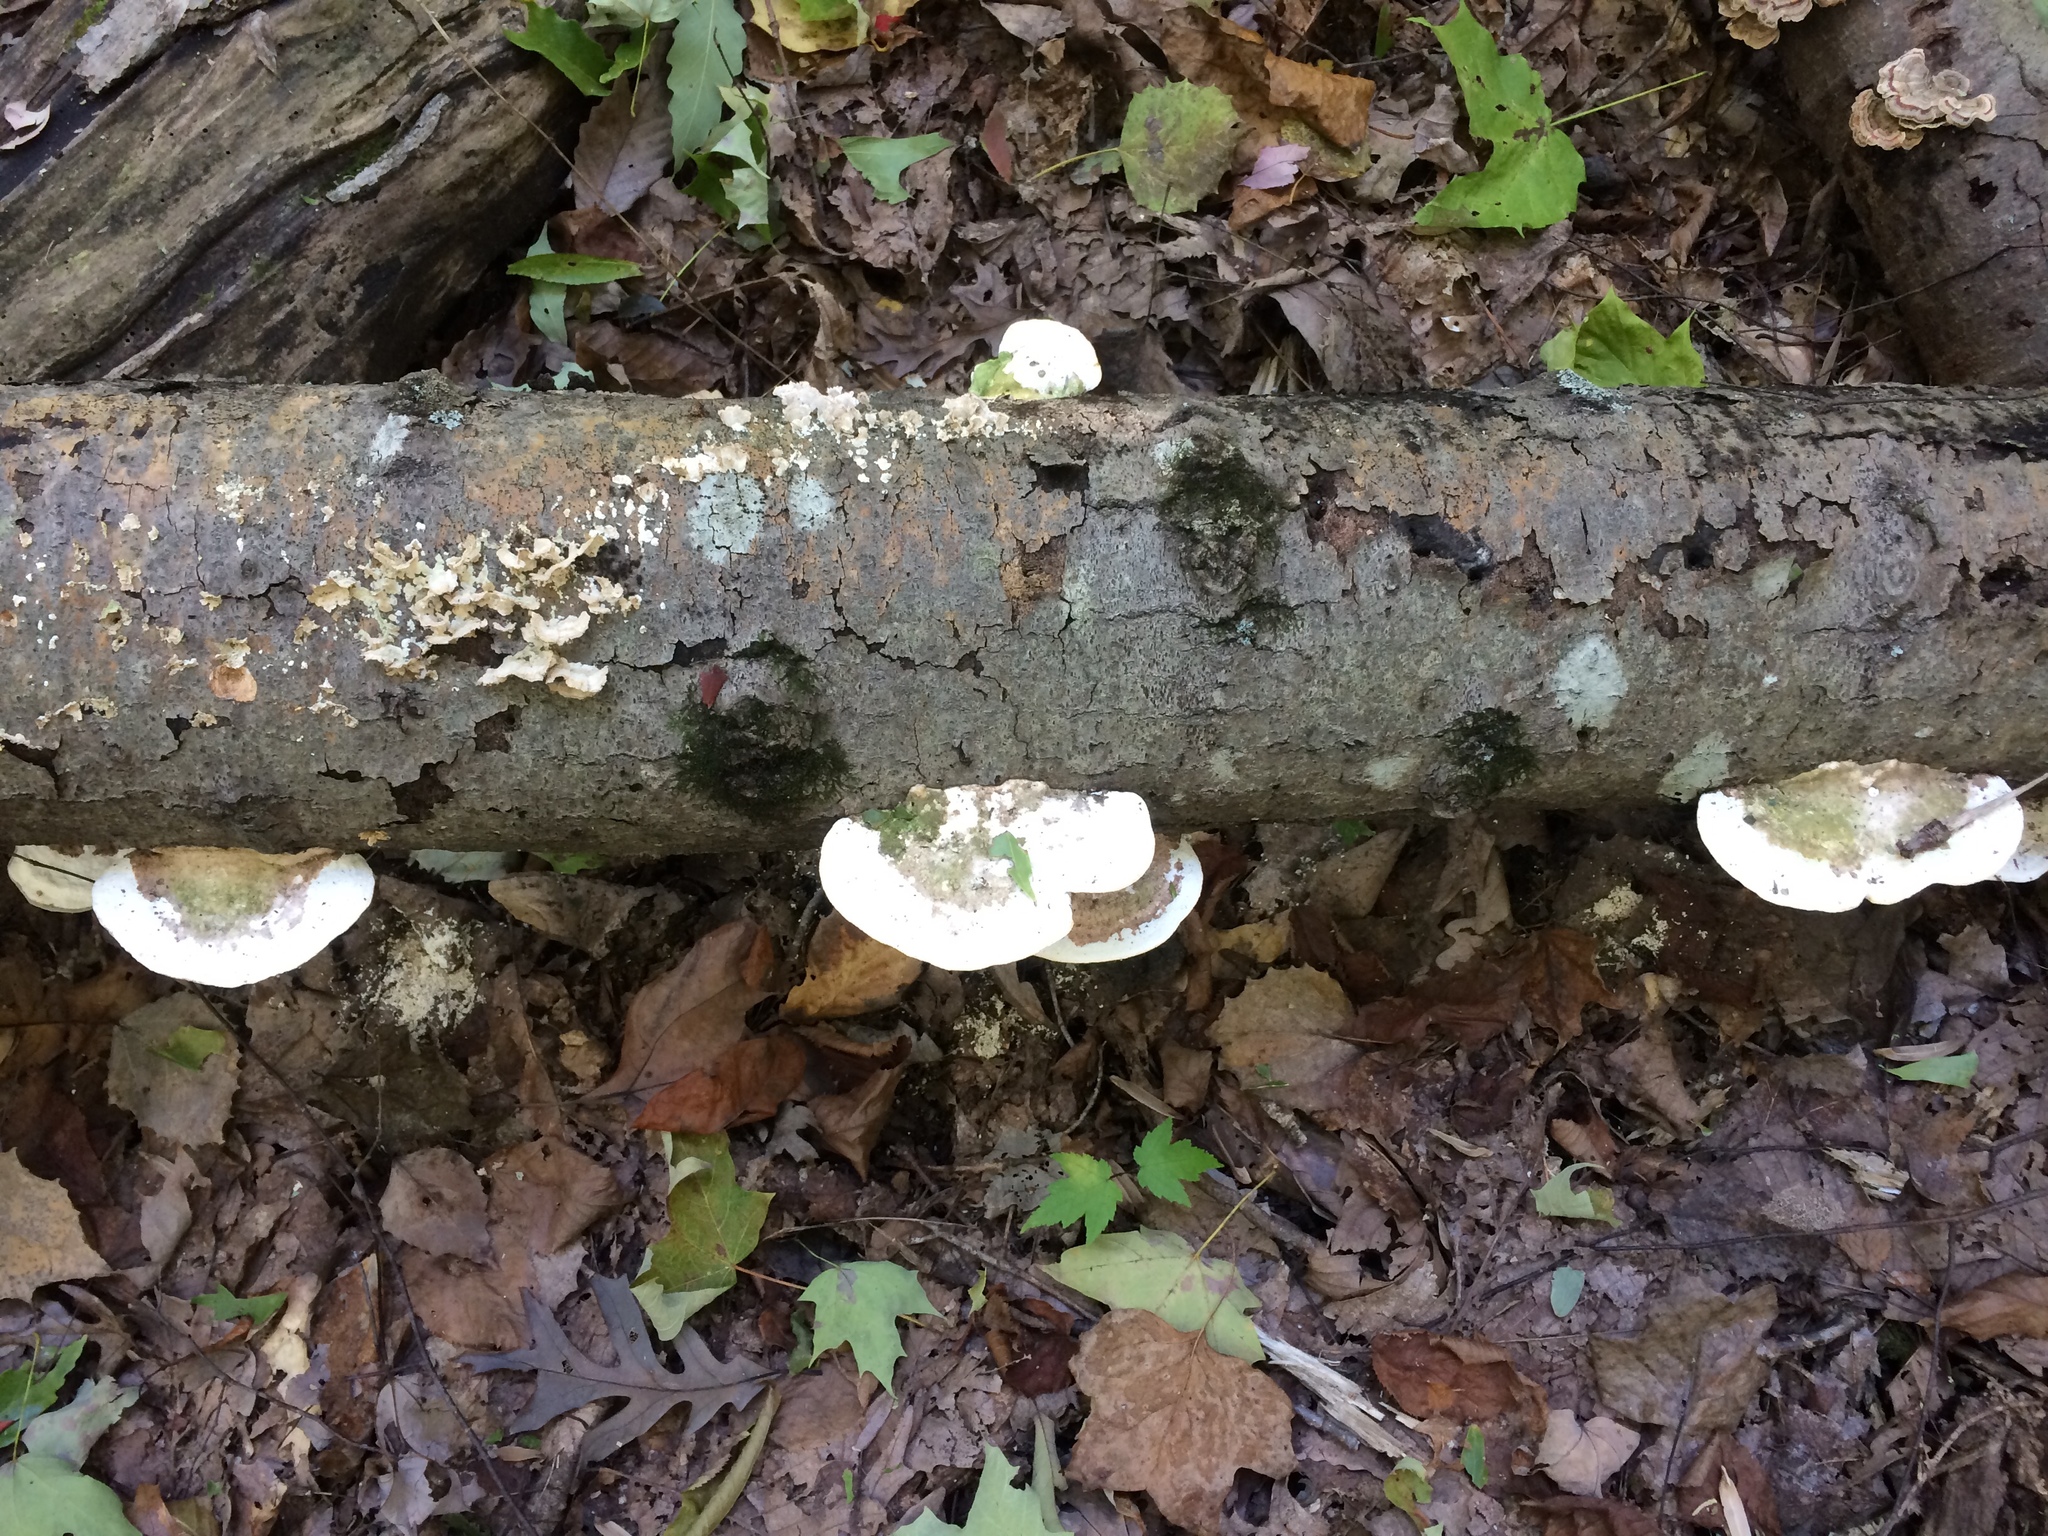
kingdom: Fungi
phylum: Basidiomycota
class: Agaricomycetes
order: Polyporales
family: Polyporaceae
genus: Trametes
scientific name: Trametes gibbosa
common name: Lumpy bracket
